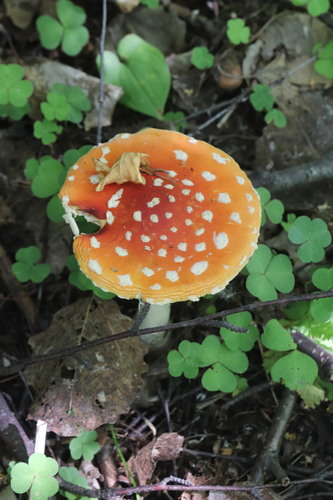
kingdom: Fungi
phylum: Basidiomycota
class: Agaricomycetes
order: Agaricales
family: Amanitaceae
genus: Amanita
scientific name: Amanita muscaria
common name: Fly agaric
